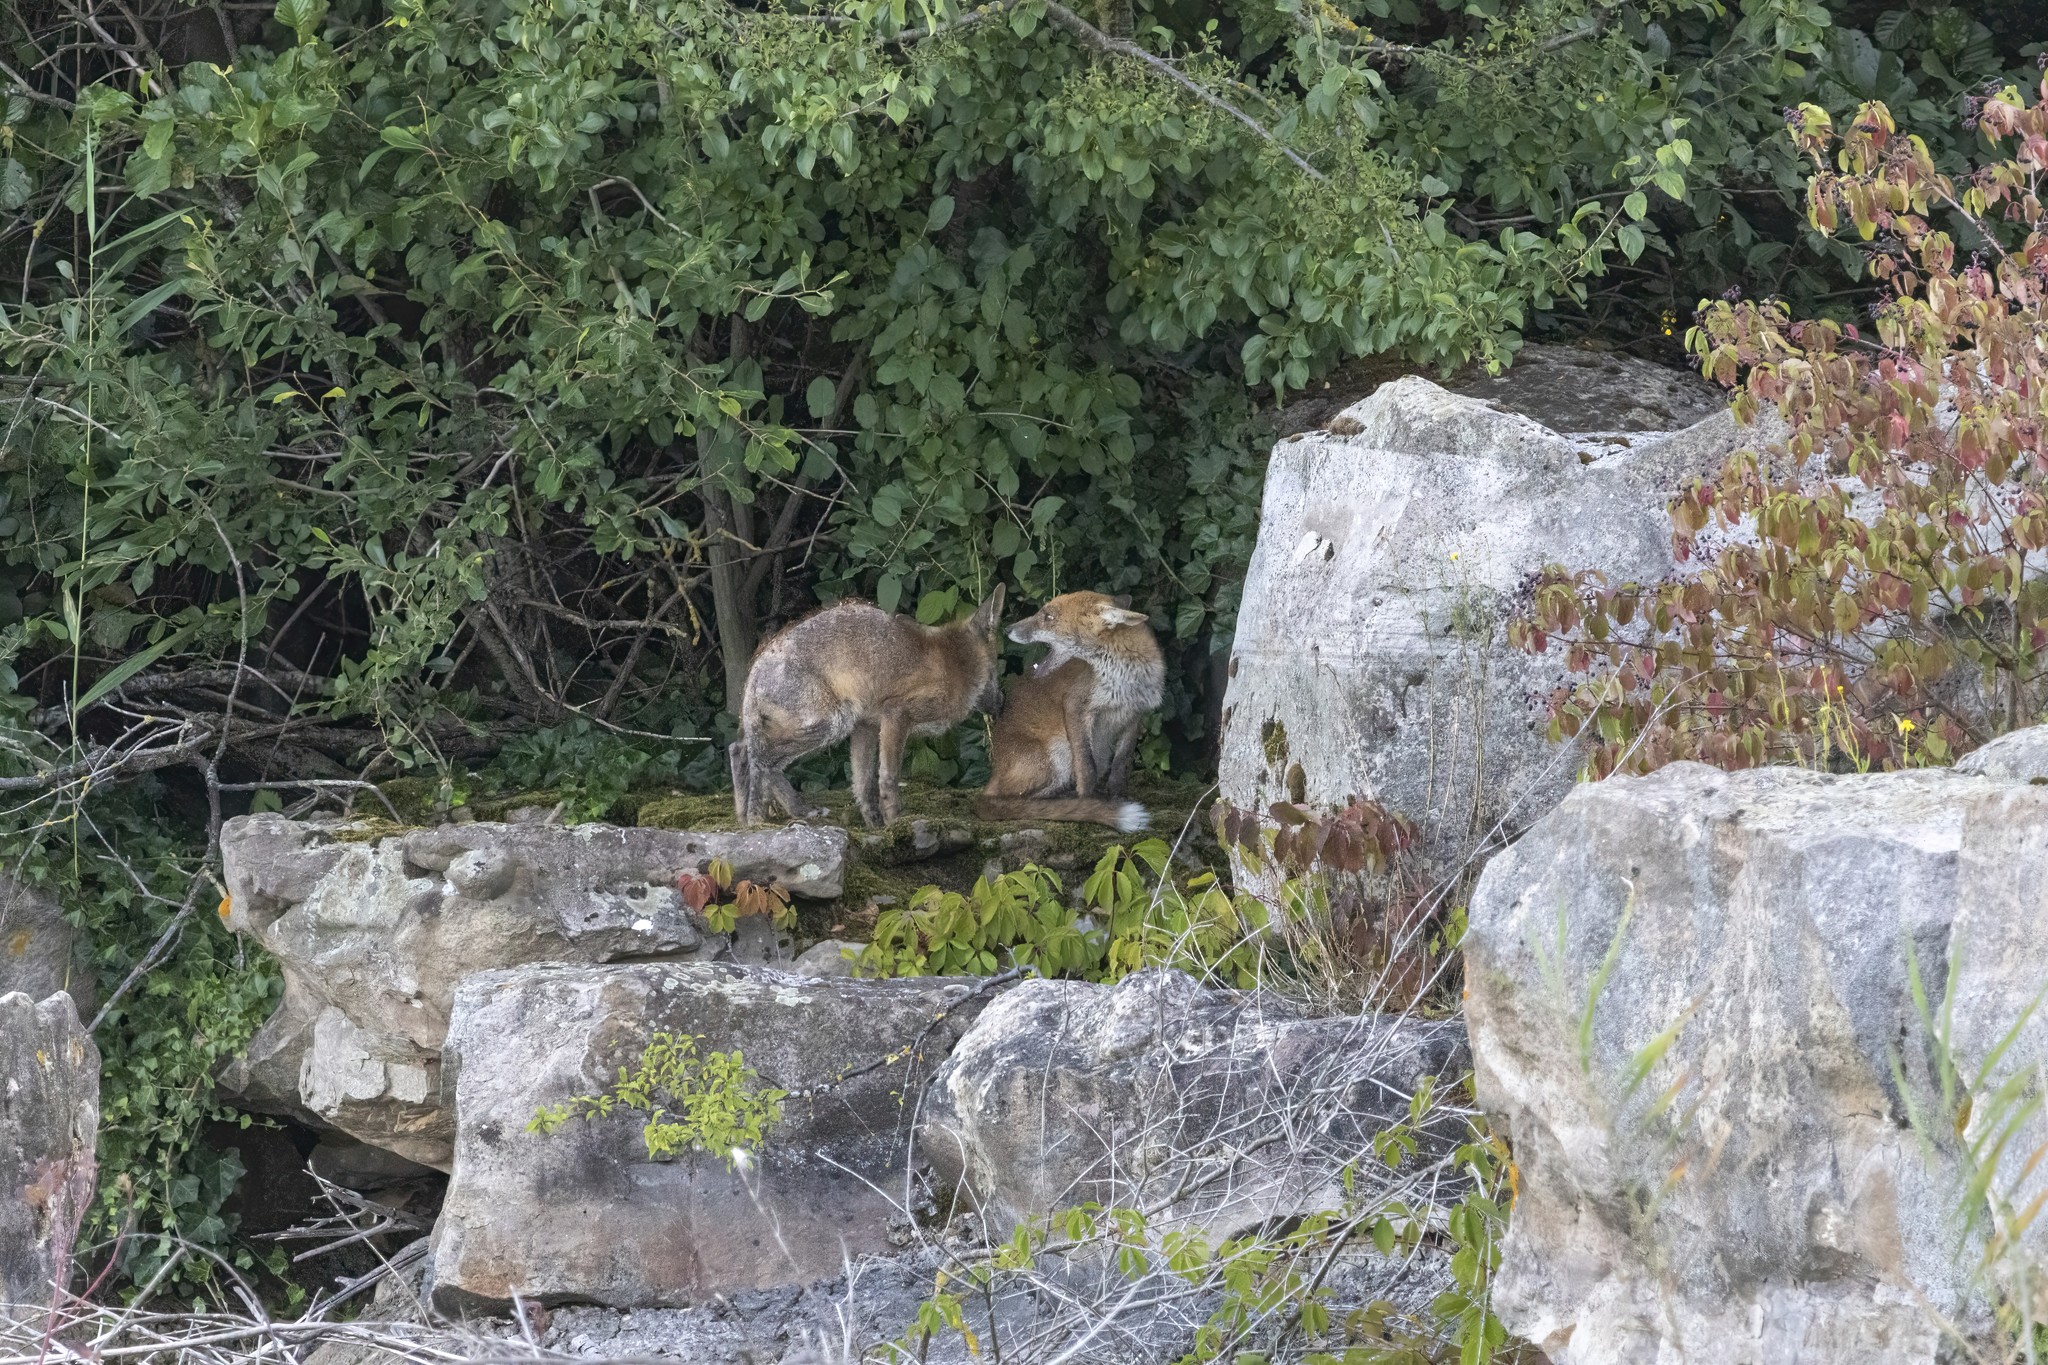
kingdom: Animalia
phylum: Chordata
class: Mammalia
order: Carnivora
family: Canidae
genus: Vulpes
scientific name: Vulpes vulpes
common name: Red fox
